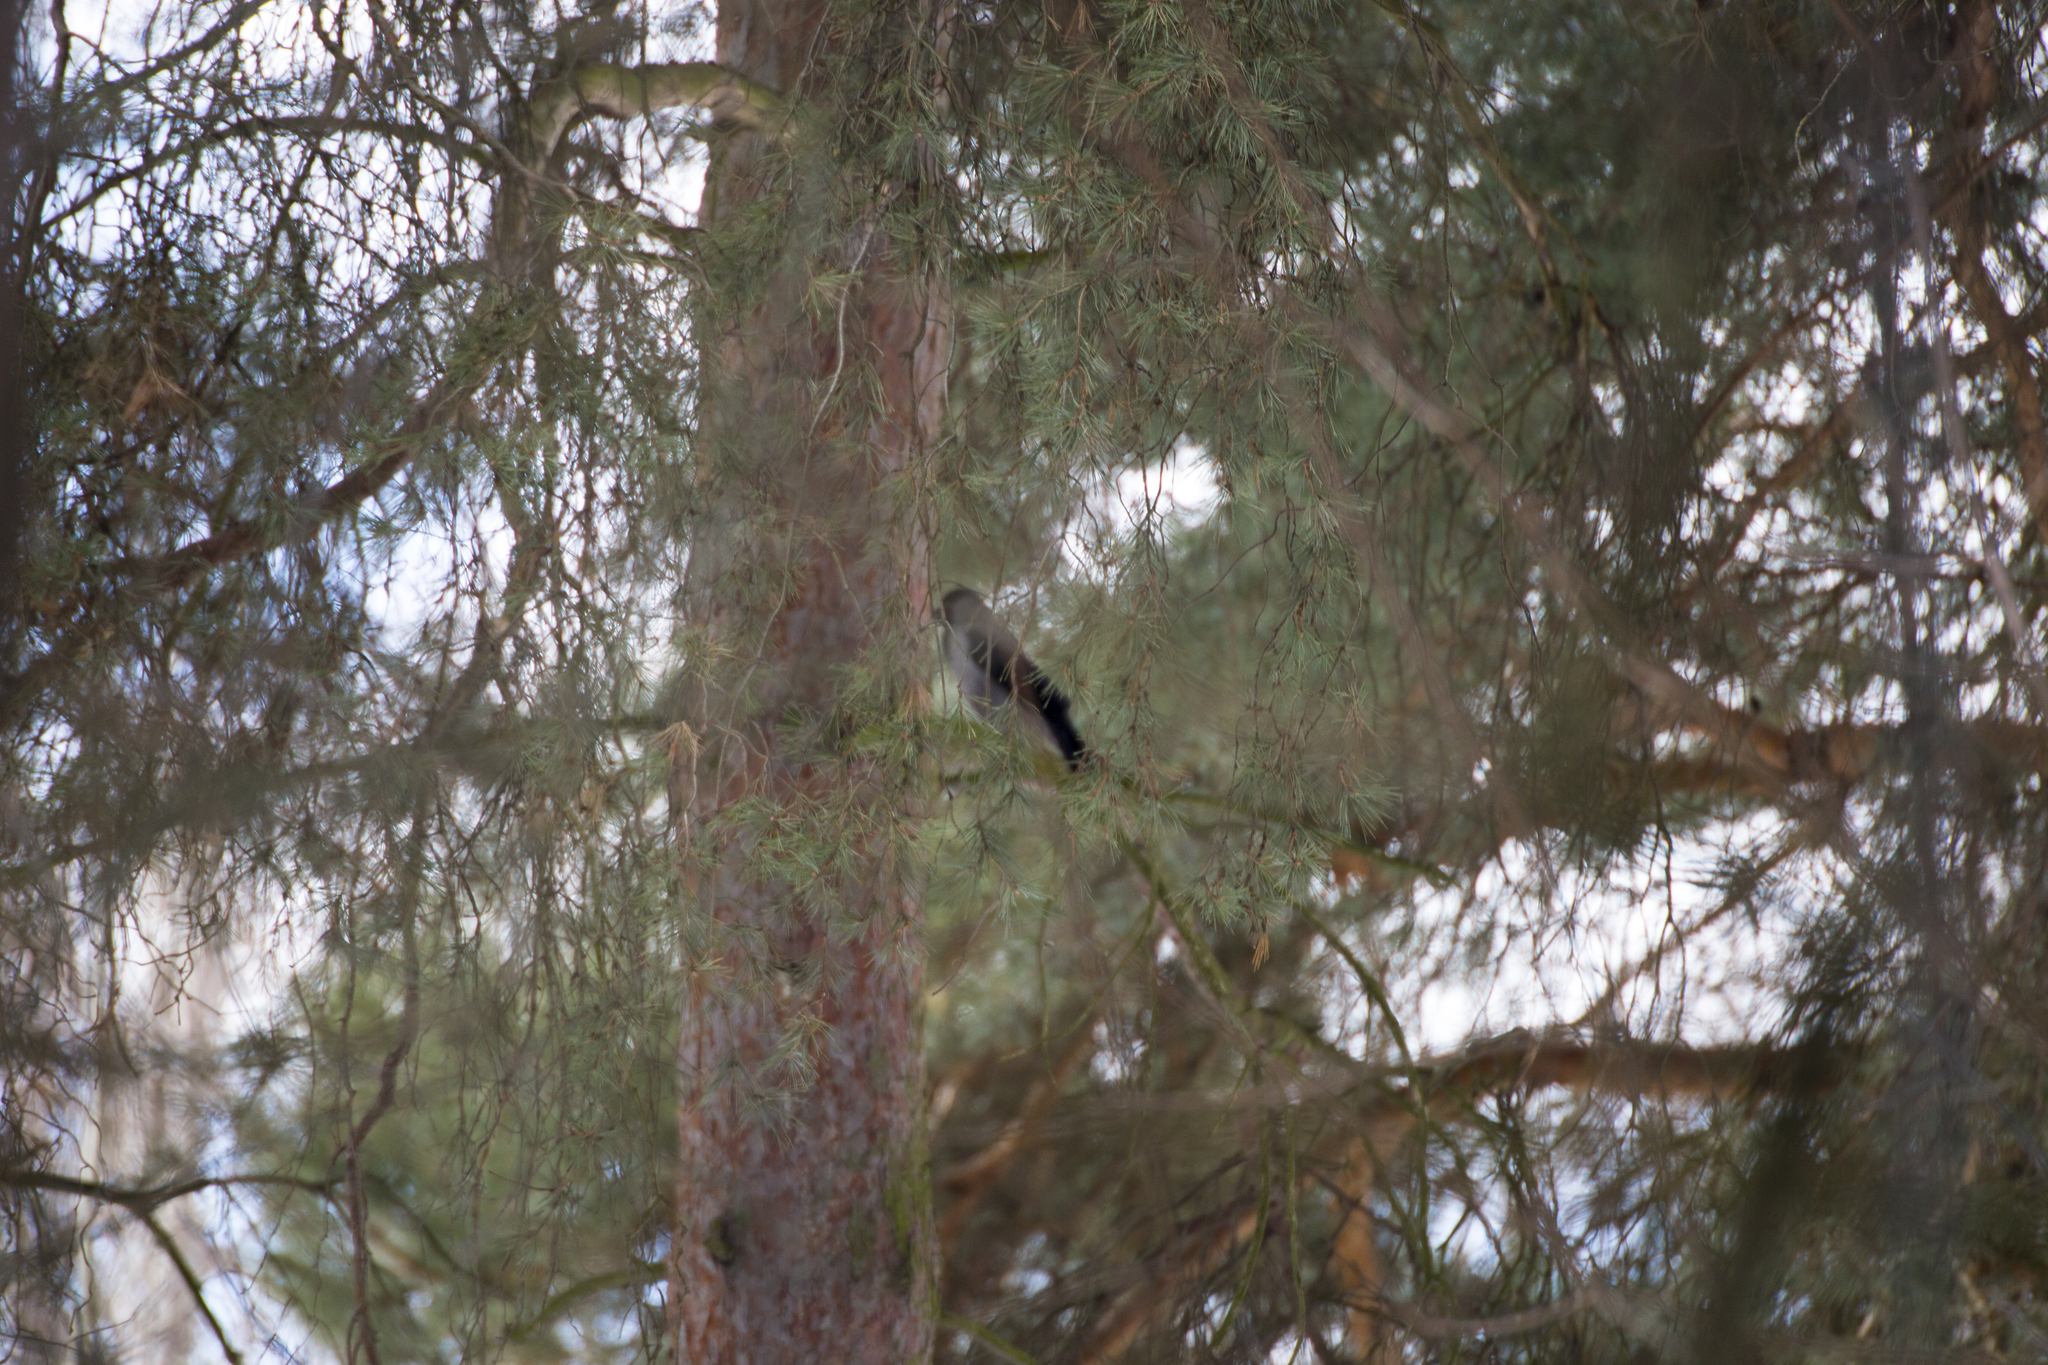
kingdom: Animalia
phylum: Chordata
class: Aves
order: Passeriformes
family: Corvidae
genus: Corvus
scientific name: Corvus cornix
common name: Hooded crow
